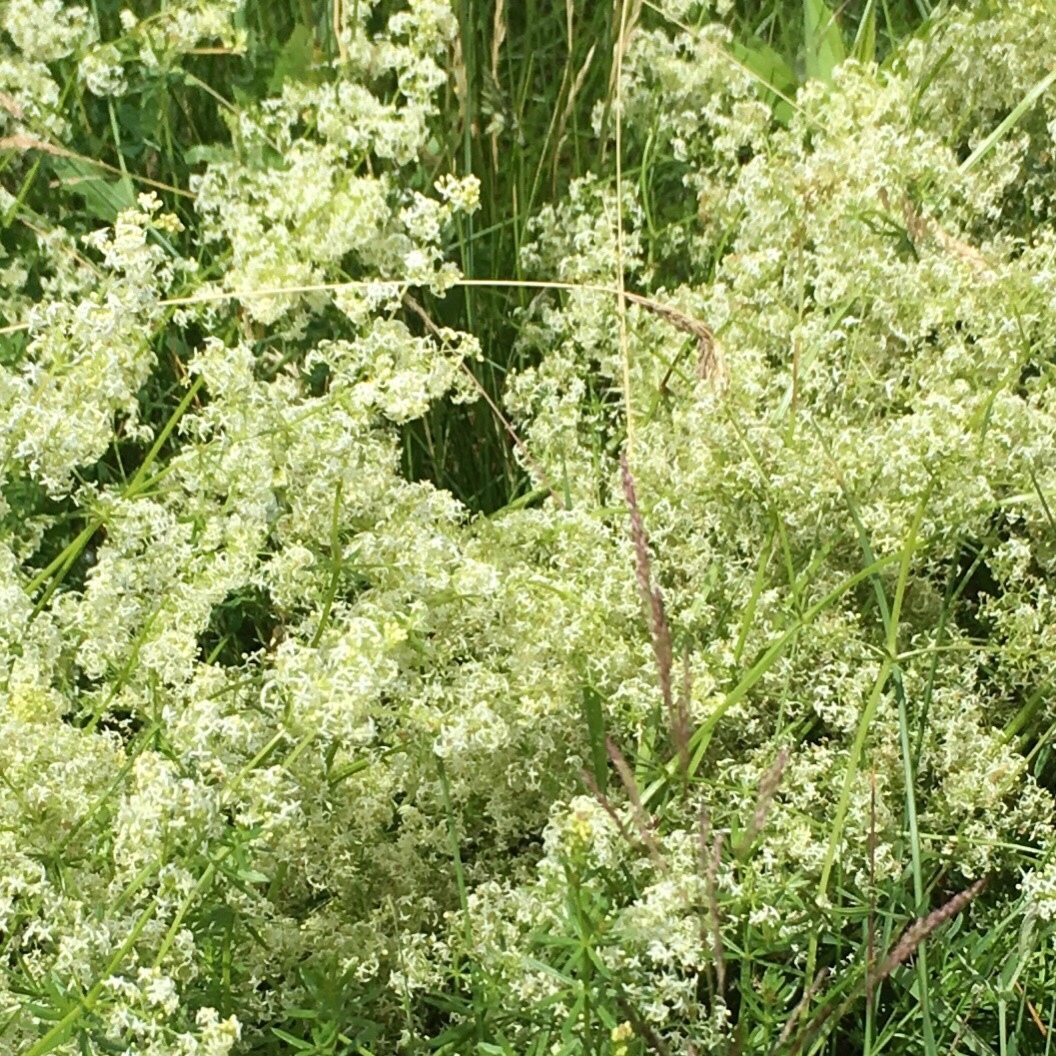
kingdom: Plantae
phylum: Tracheophyta
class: Magnoliopsida
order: Gentianales
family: Rubiaceae
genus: Galium
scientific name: Galium mollugo
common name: Hedge bedstraw
